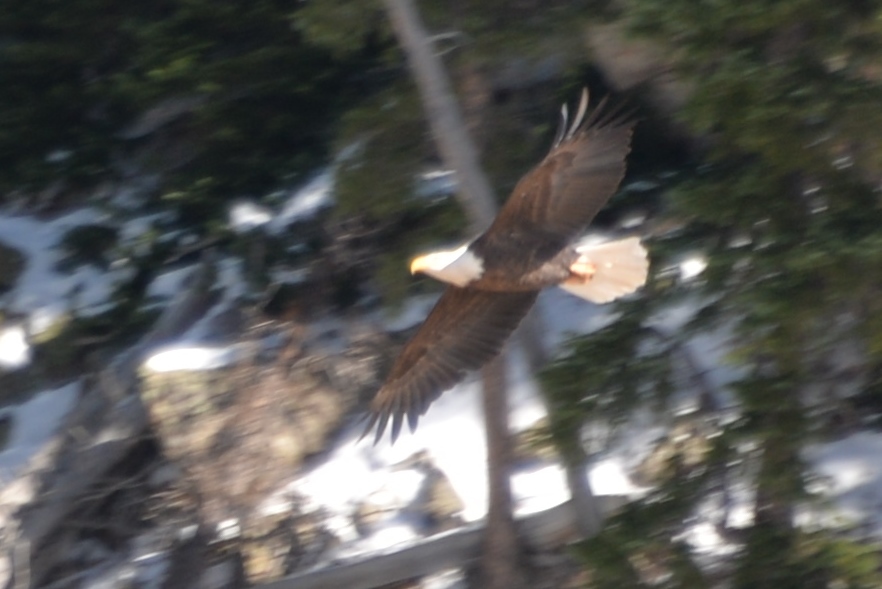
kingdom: Animalia
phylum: Chordata
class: Aves
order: Accipitriformes
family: Accipitridae
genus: Haliaeetus
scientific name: Haliaeetus leucocephalus
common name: Bald eagle
